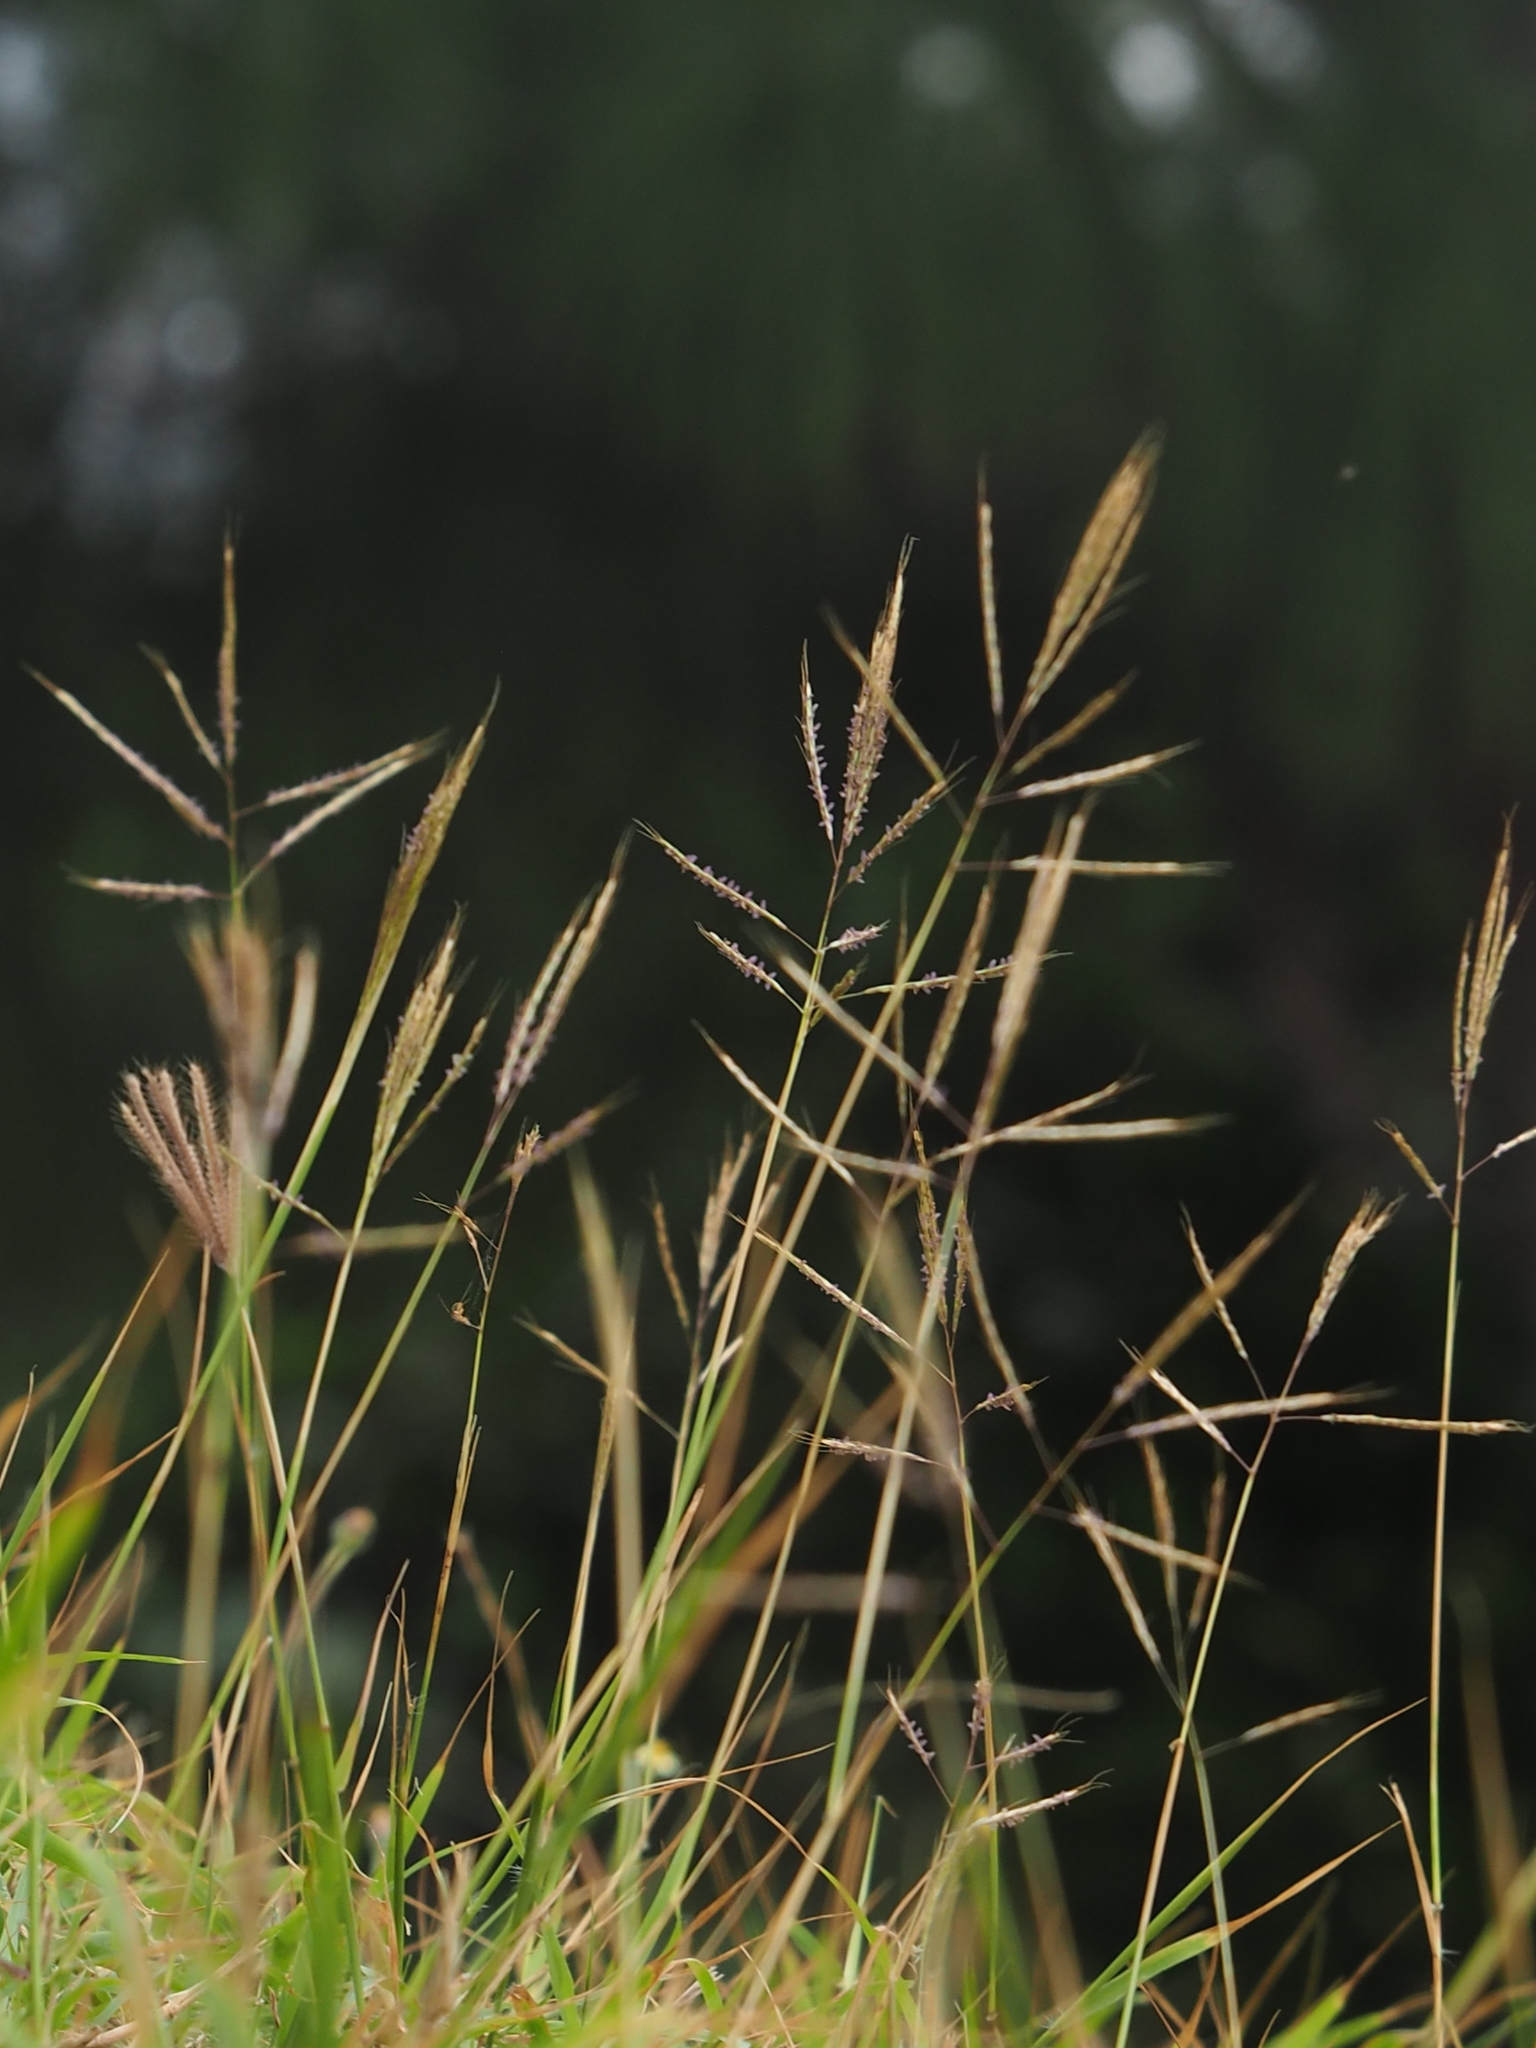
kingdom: Plantae
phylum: Tracheophyta
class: Liliopsida
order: Poales
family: Poaceae
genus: Bothriochloa
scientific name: Bothriochloa bladhii
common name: Caucasian bluestem
